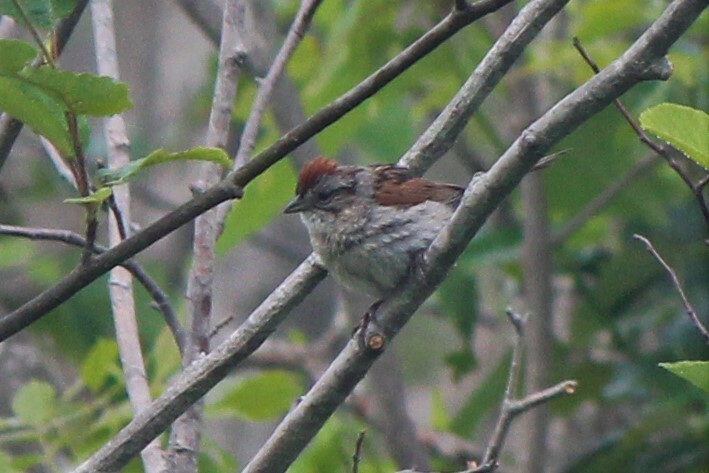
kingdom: Animalia
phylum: Chordata
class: Aves
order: Passeriformes
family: Passerellidae
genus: Melospiza
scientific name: Melospiza georgiana
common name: Swamp sparrow
